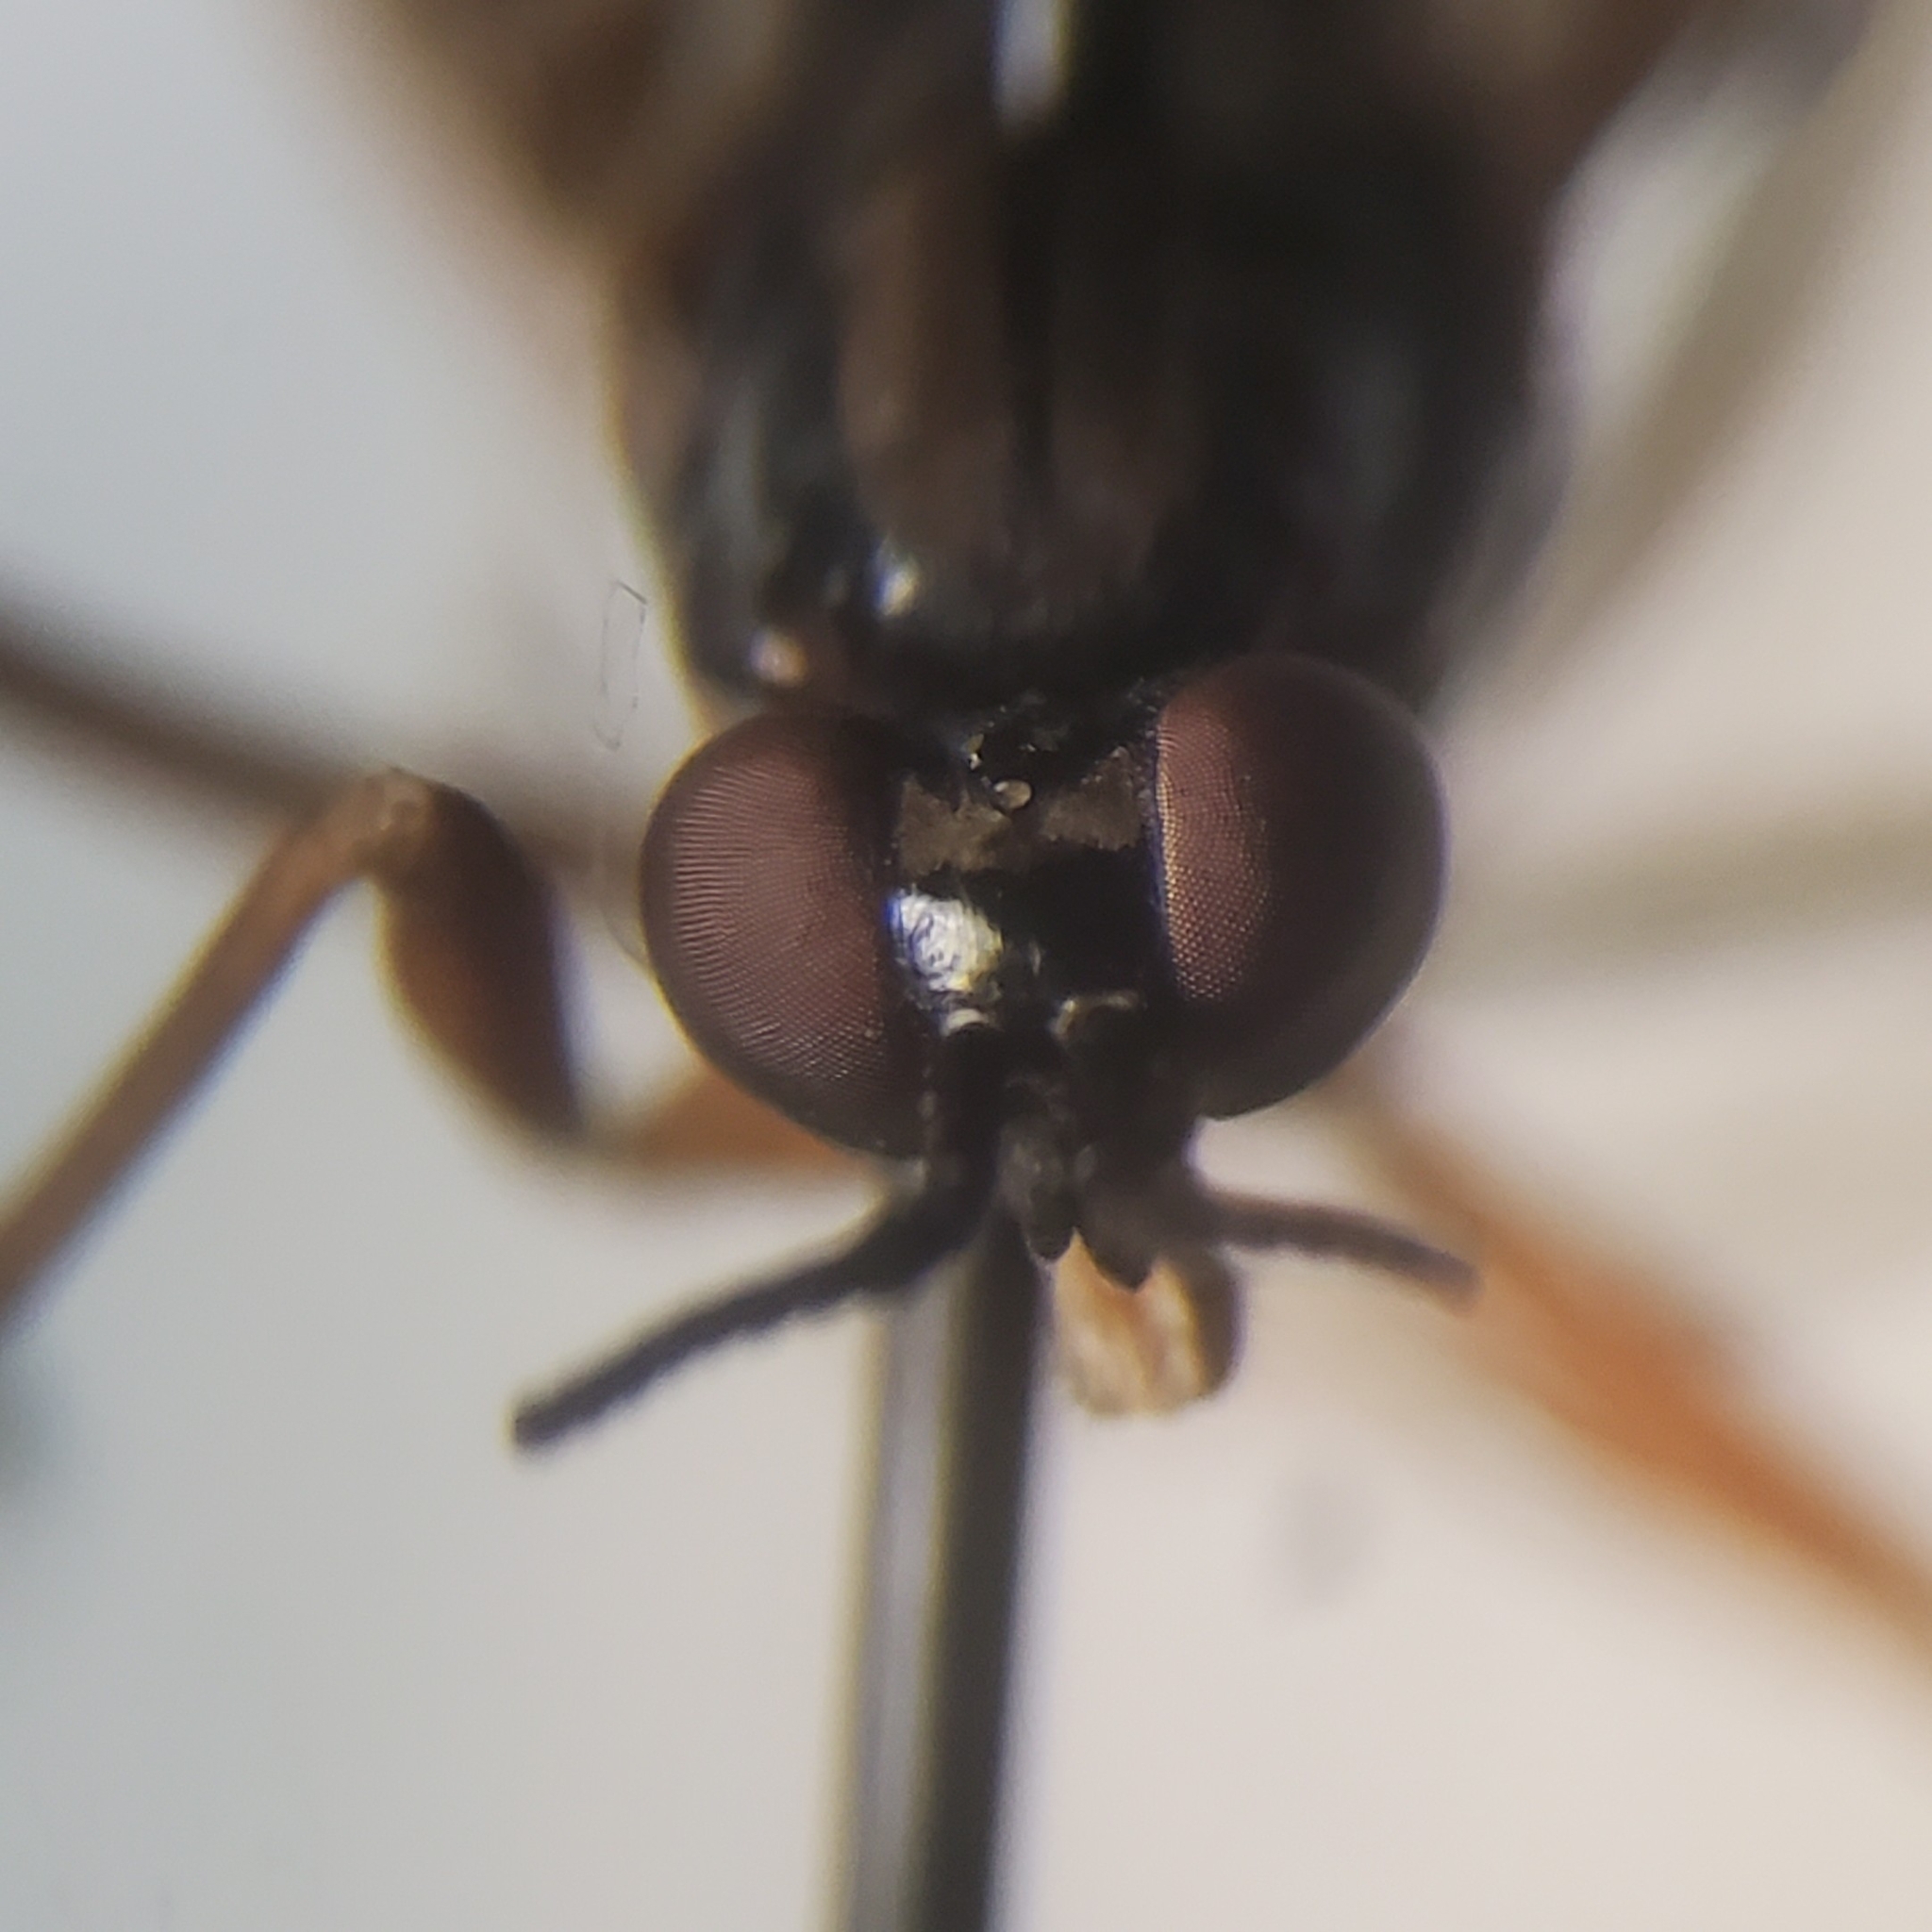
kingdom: Animalia
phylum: Arthropoda
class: Insecta
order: Diptera
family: Xylophagidae
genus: Xylophagus
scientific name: Xylophagus reflectens
